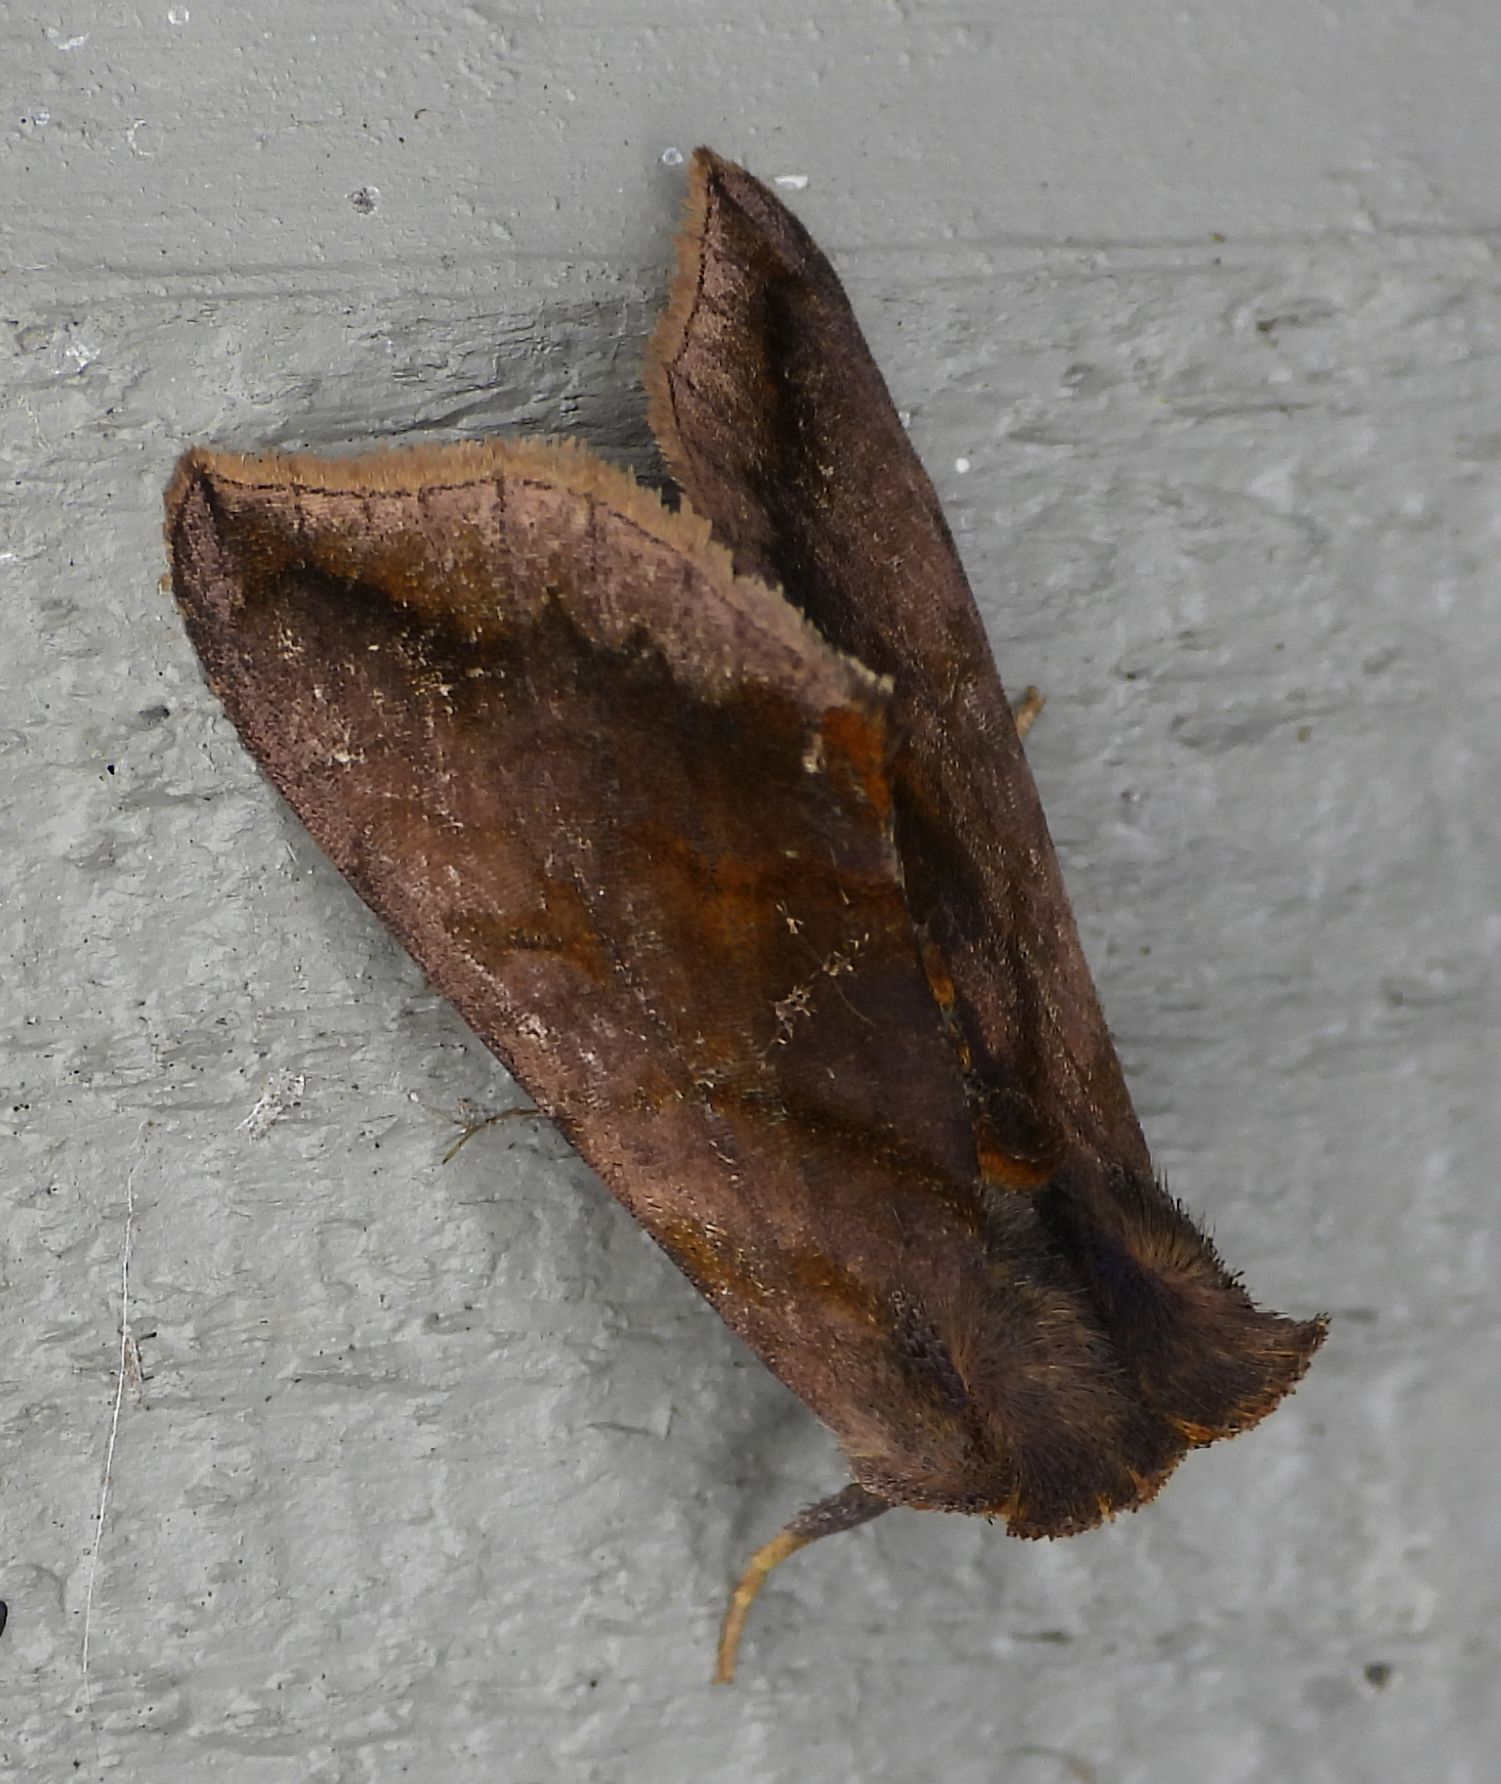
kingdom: Animalia
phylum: Arthropoda
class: Insecta
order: Lepidoptera
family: Noctuidae
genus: Allagrapha
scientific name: Allagrapha aerea
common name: Unspotted looper moth
